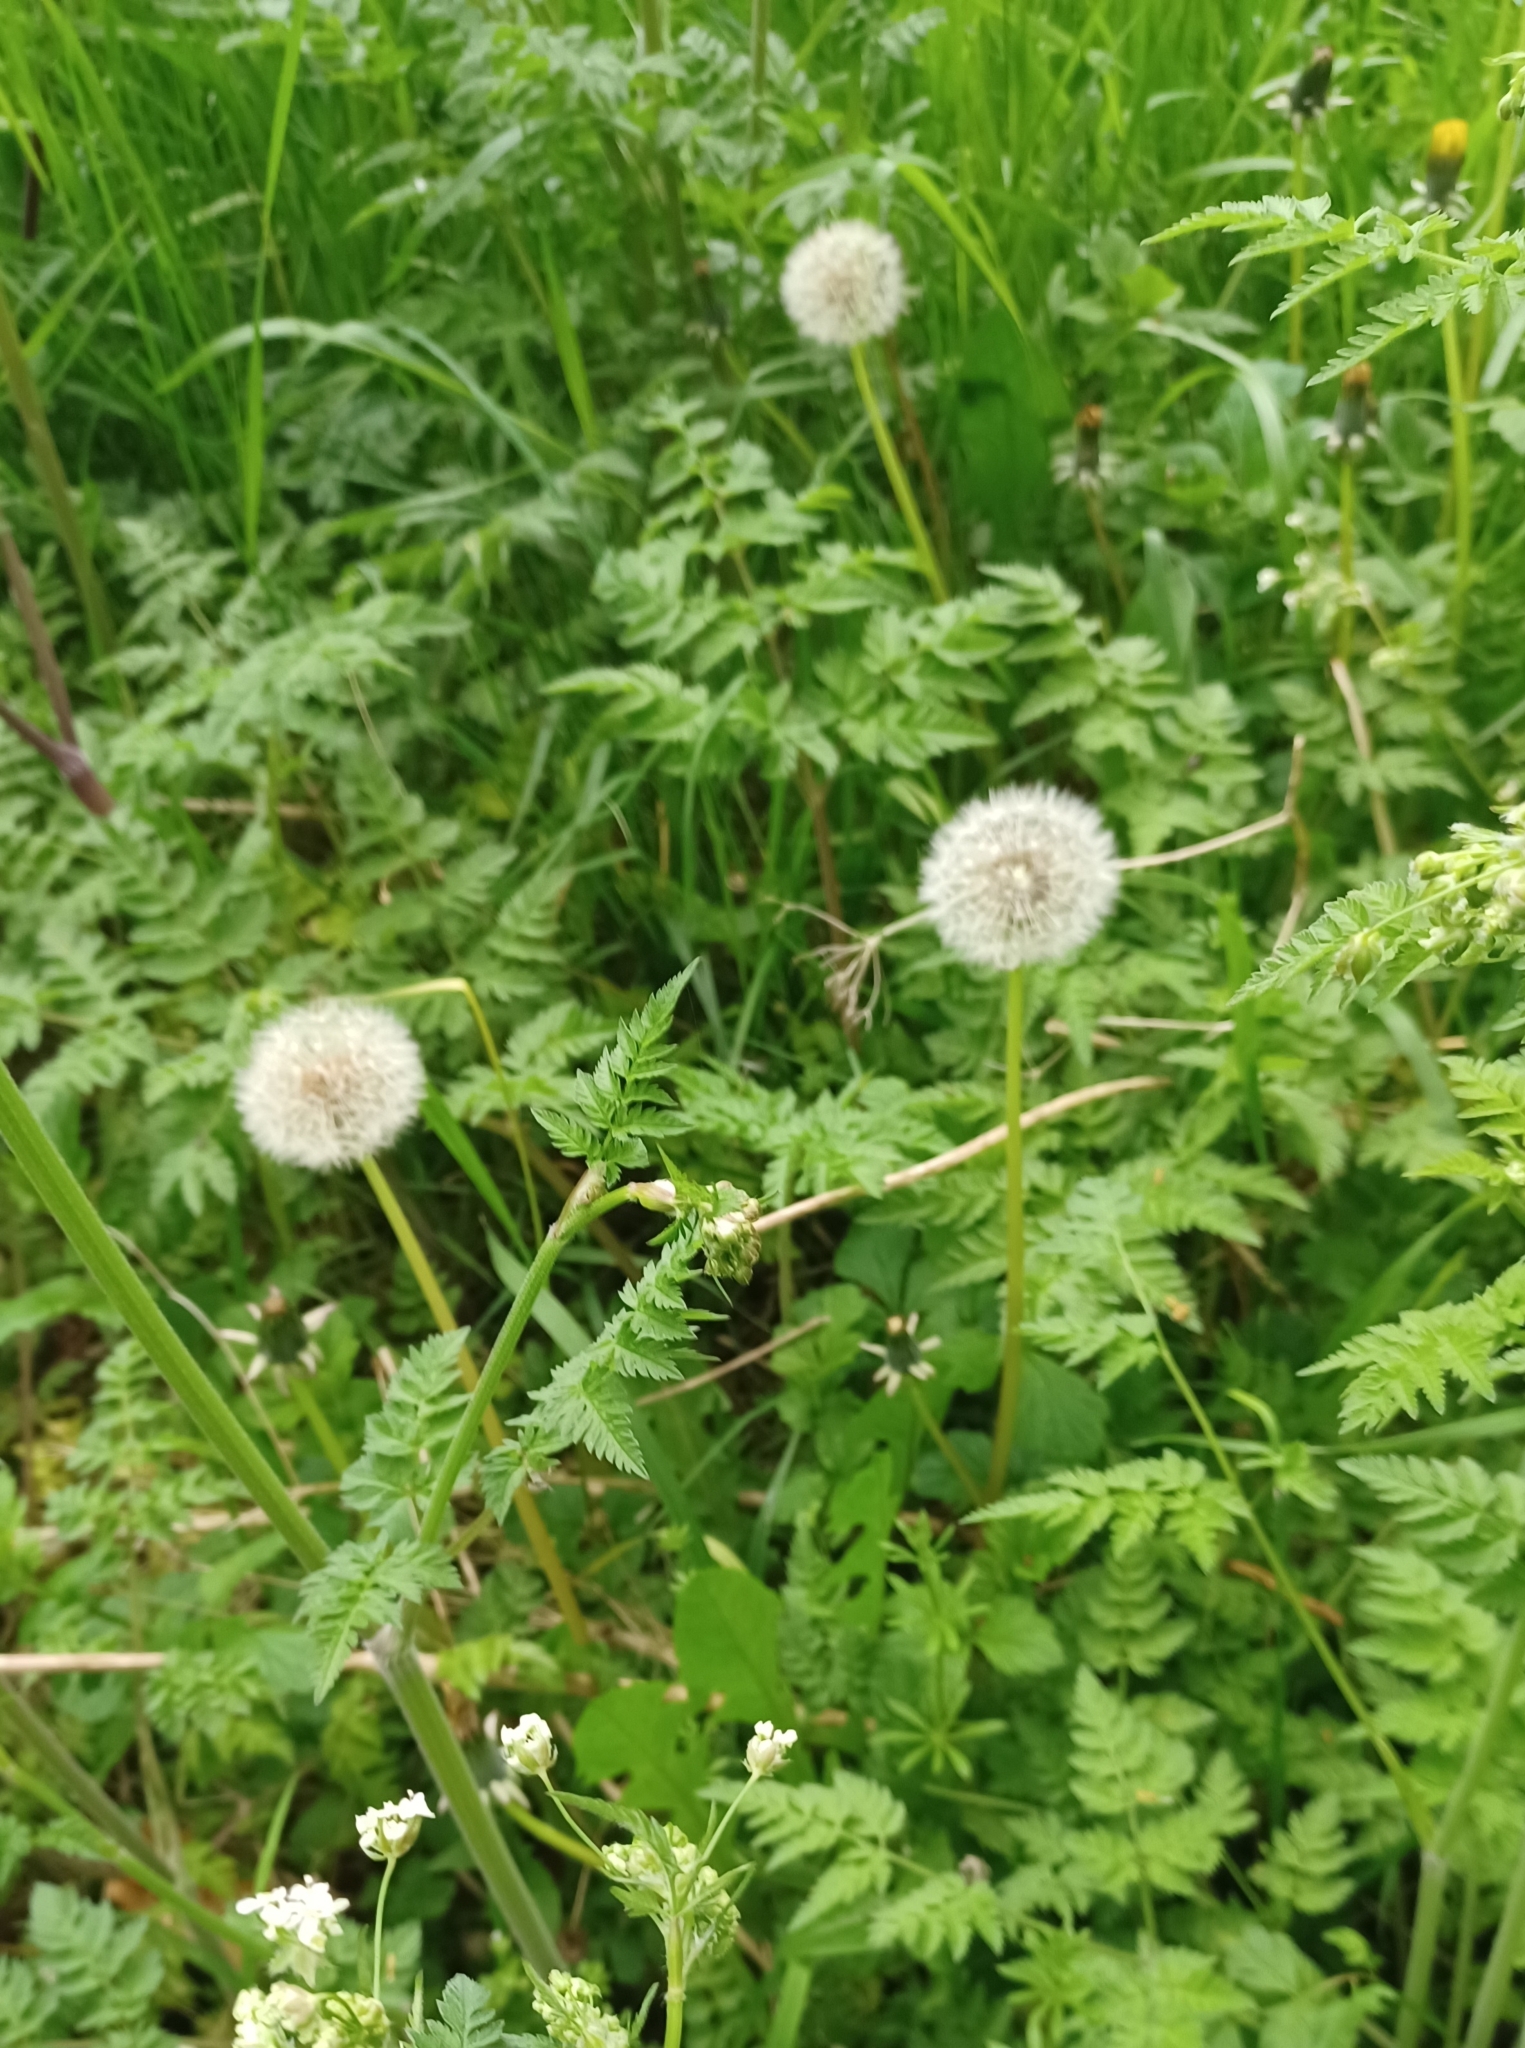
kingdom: Plantae
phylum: Tracheophyta
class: Magnoliopsida
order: Asterales
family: Asteraceae
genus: Taraxacum
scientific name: Taraxacum officinale
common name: Common dandelion
